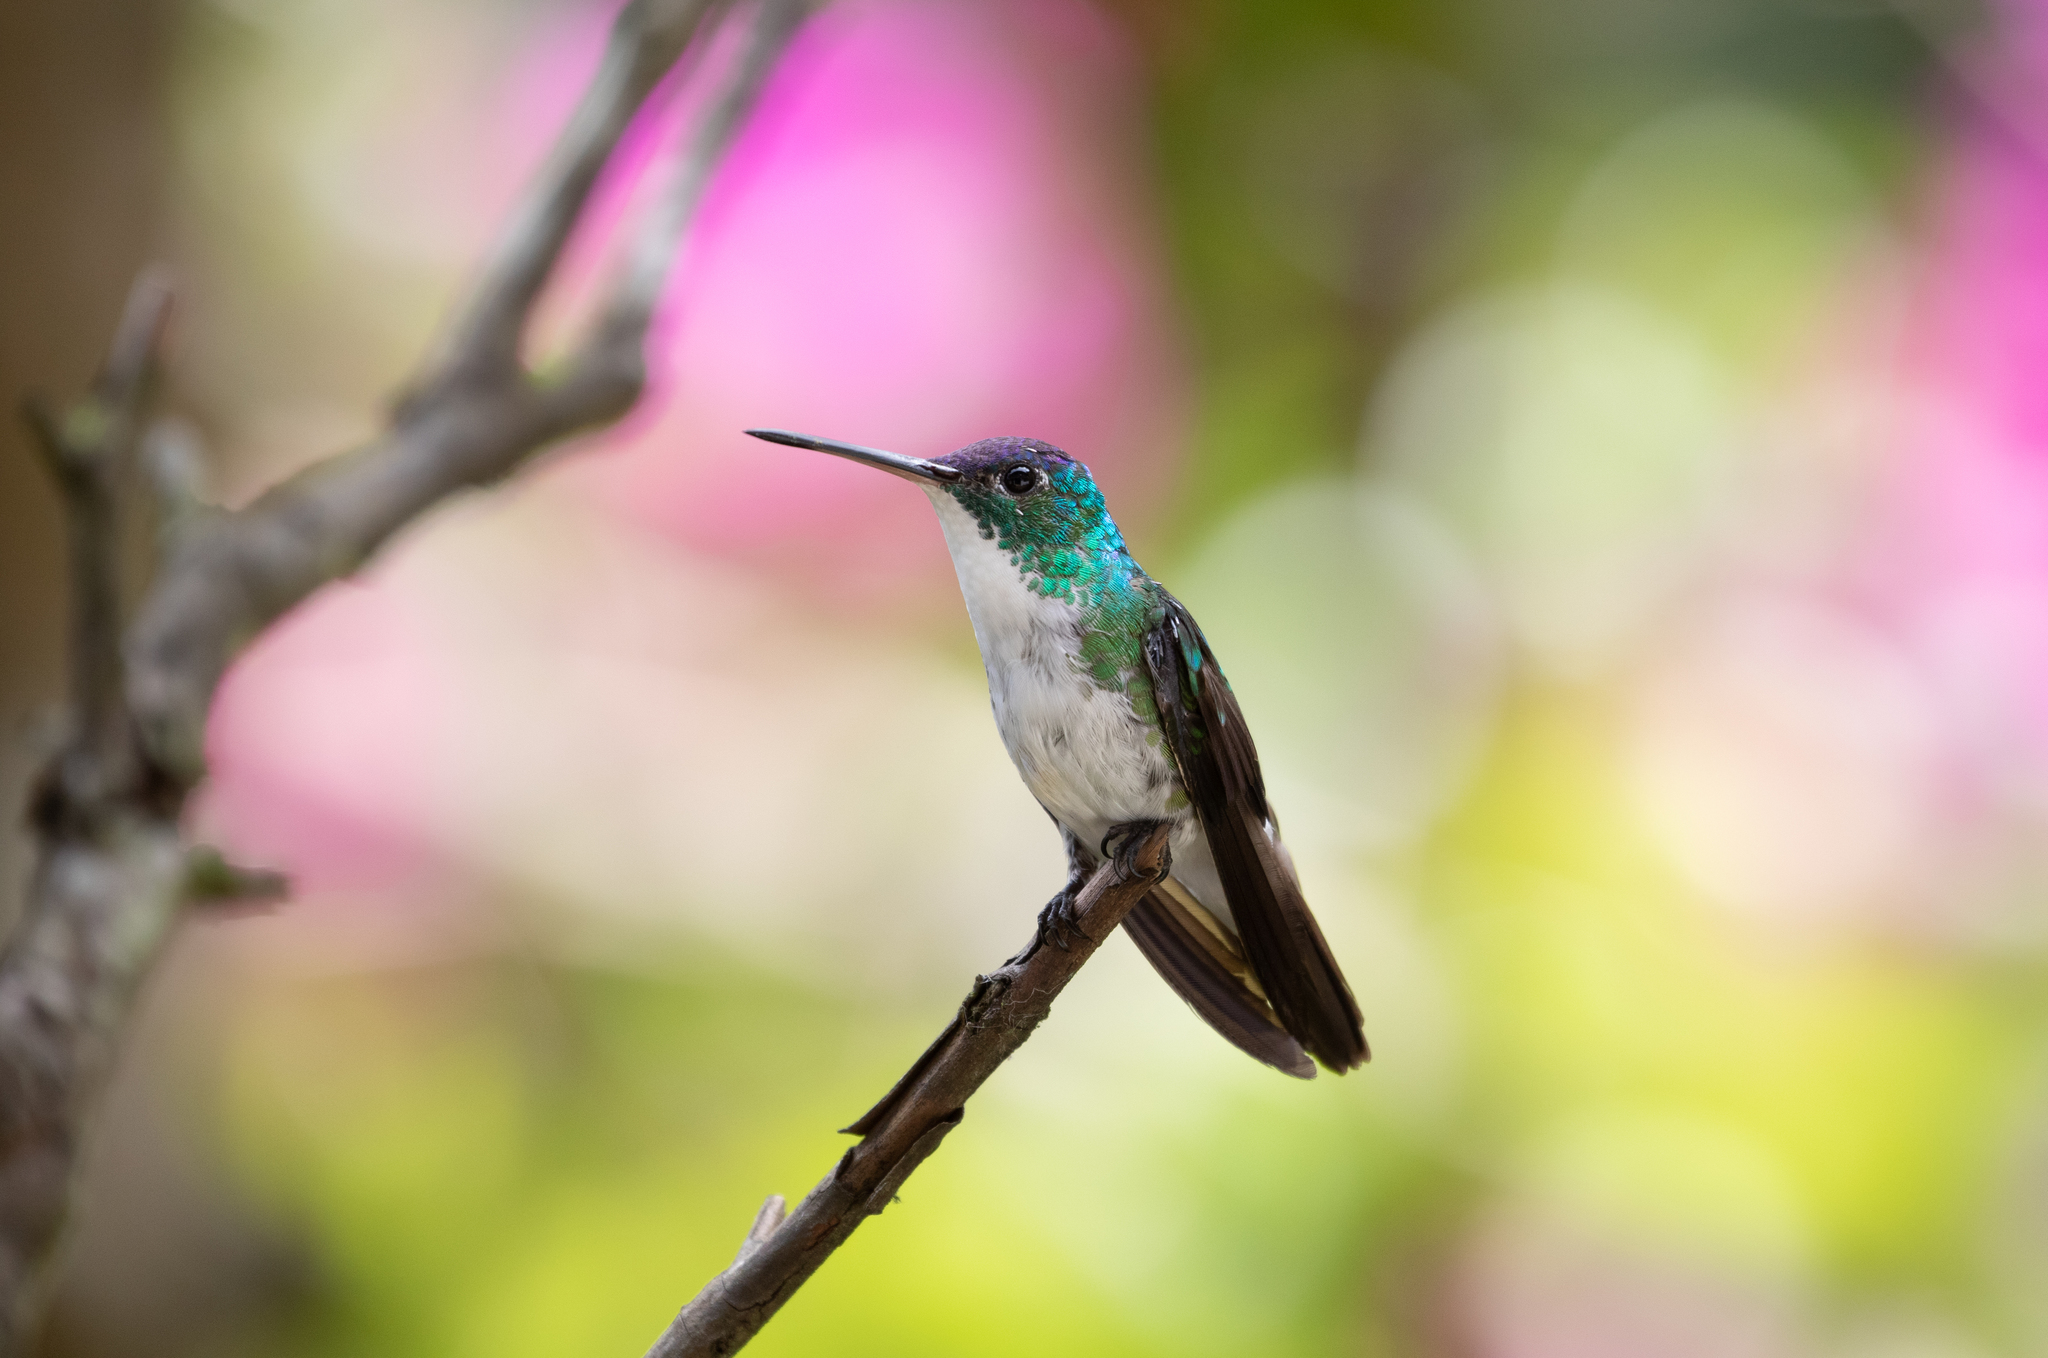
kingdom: Animalia
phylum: Chordata
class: Aves
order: Apodiformes
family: Trochilidae
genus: Uranomitra
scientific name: Uranomitra franciae
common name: Andean emerald
